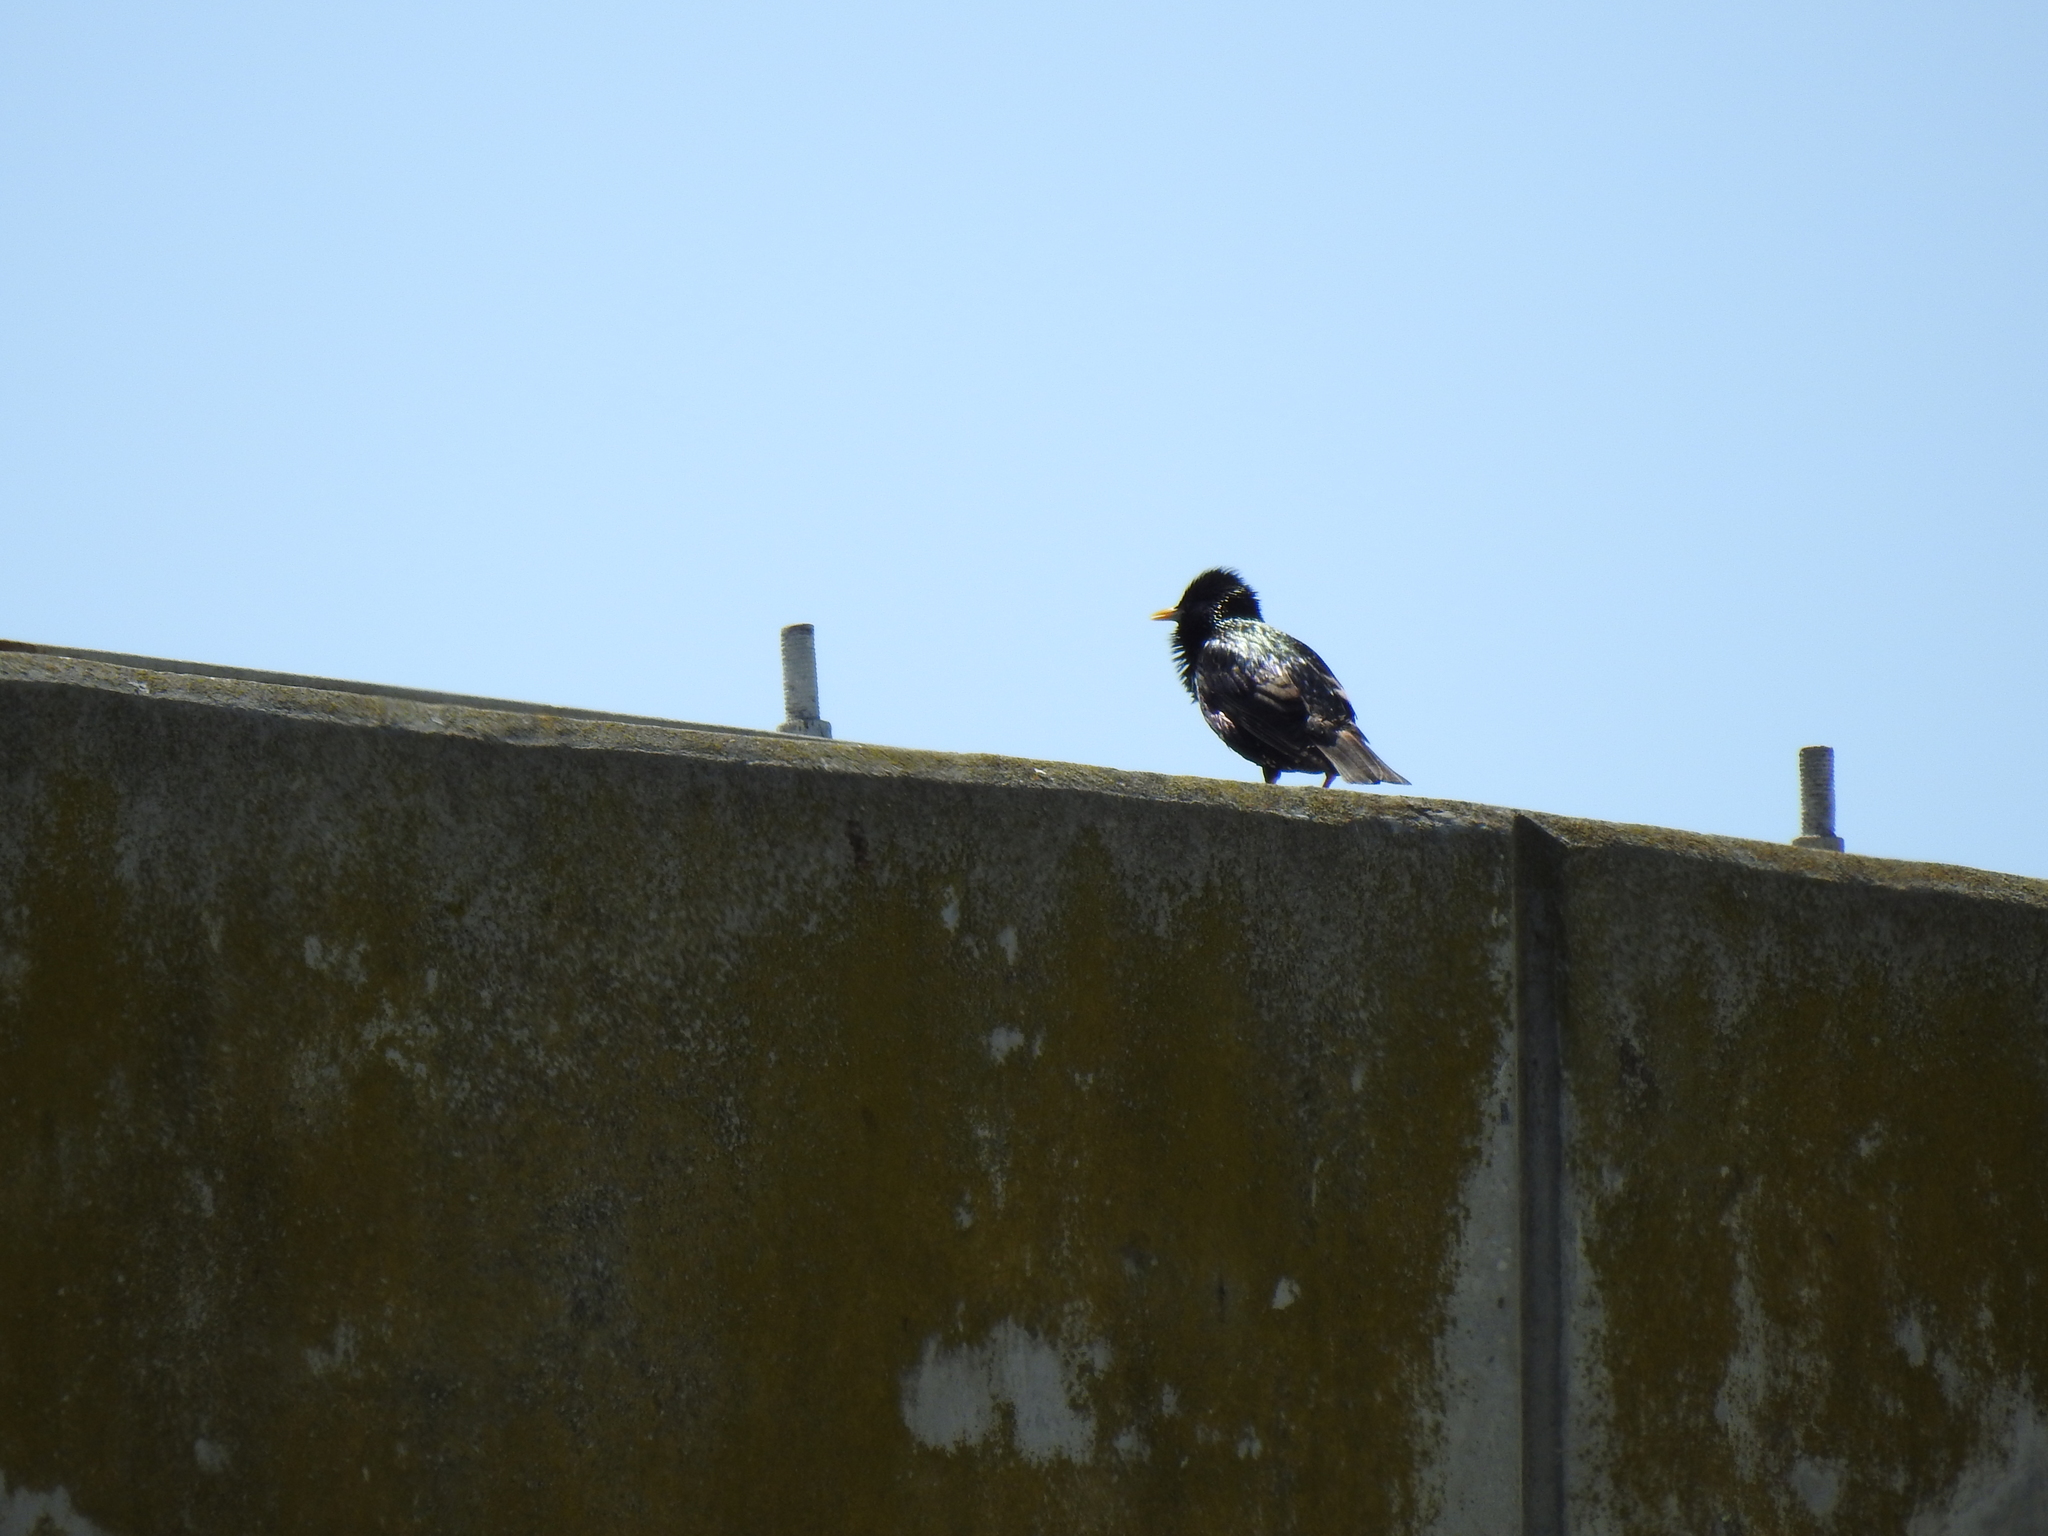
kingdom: Animalia
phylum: Chordata
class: Aves
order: Passeriformes
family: Sturnidae
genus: Sturnus
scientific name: Sturnus vulgaris
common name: Common starling
